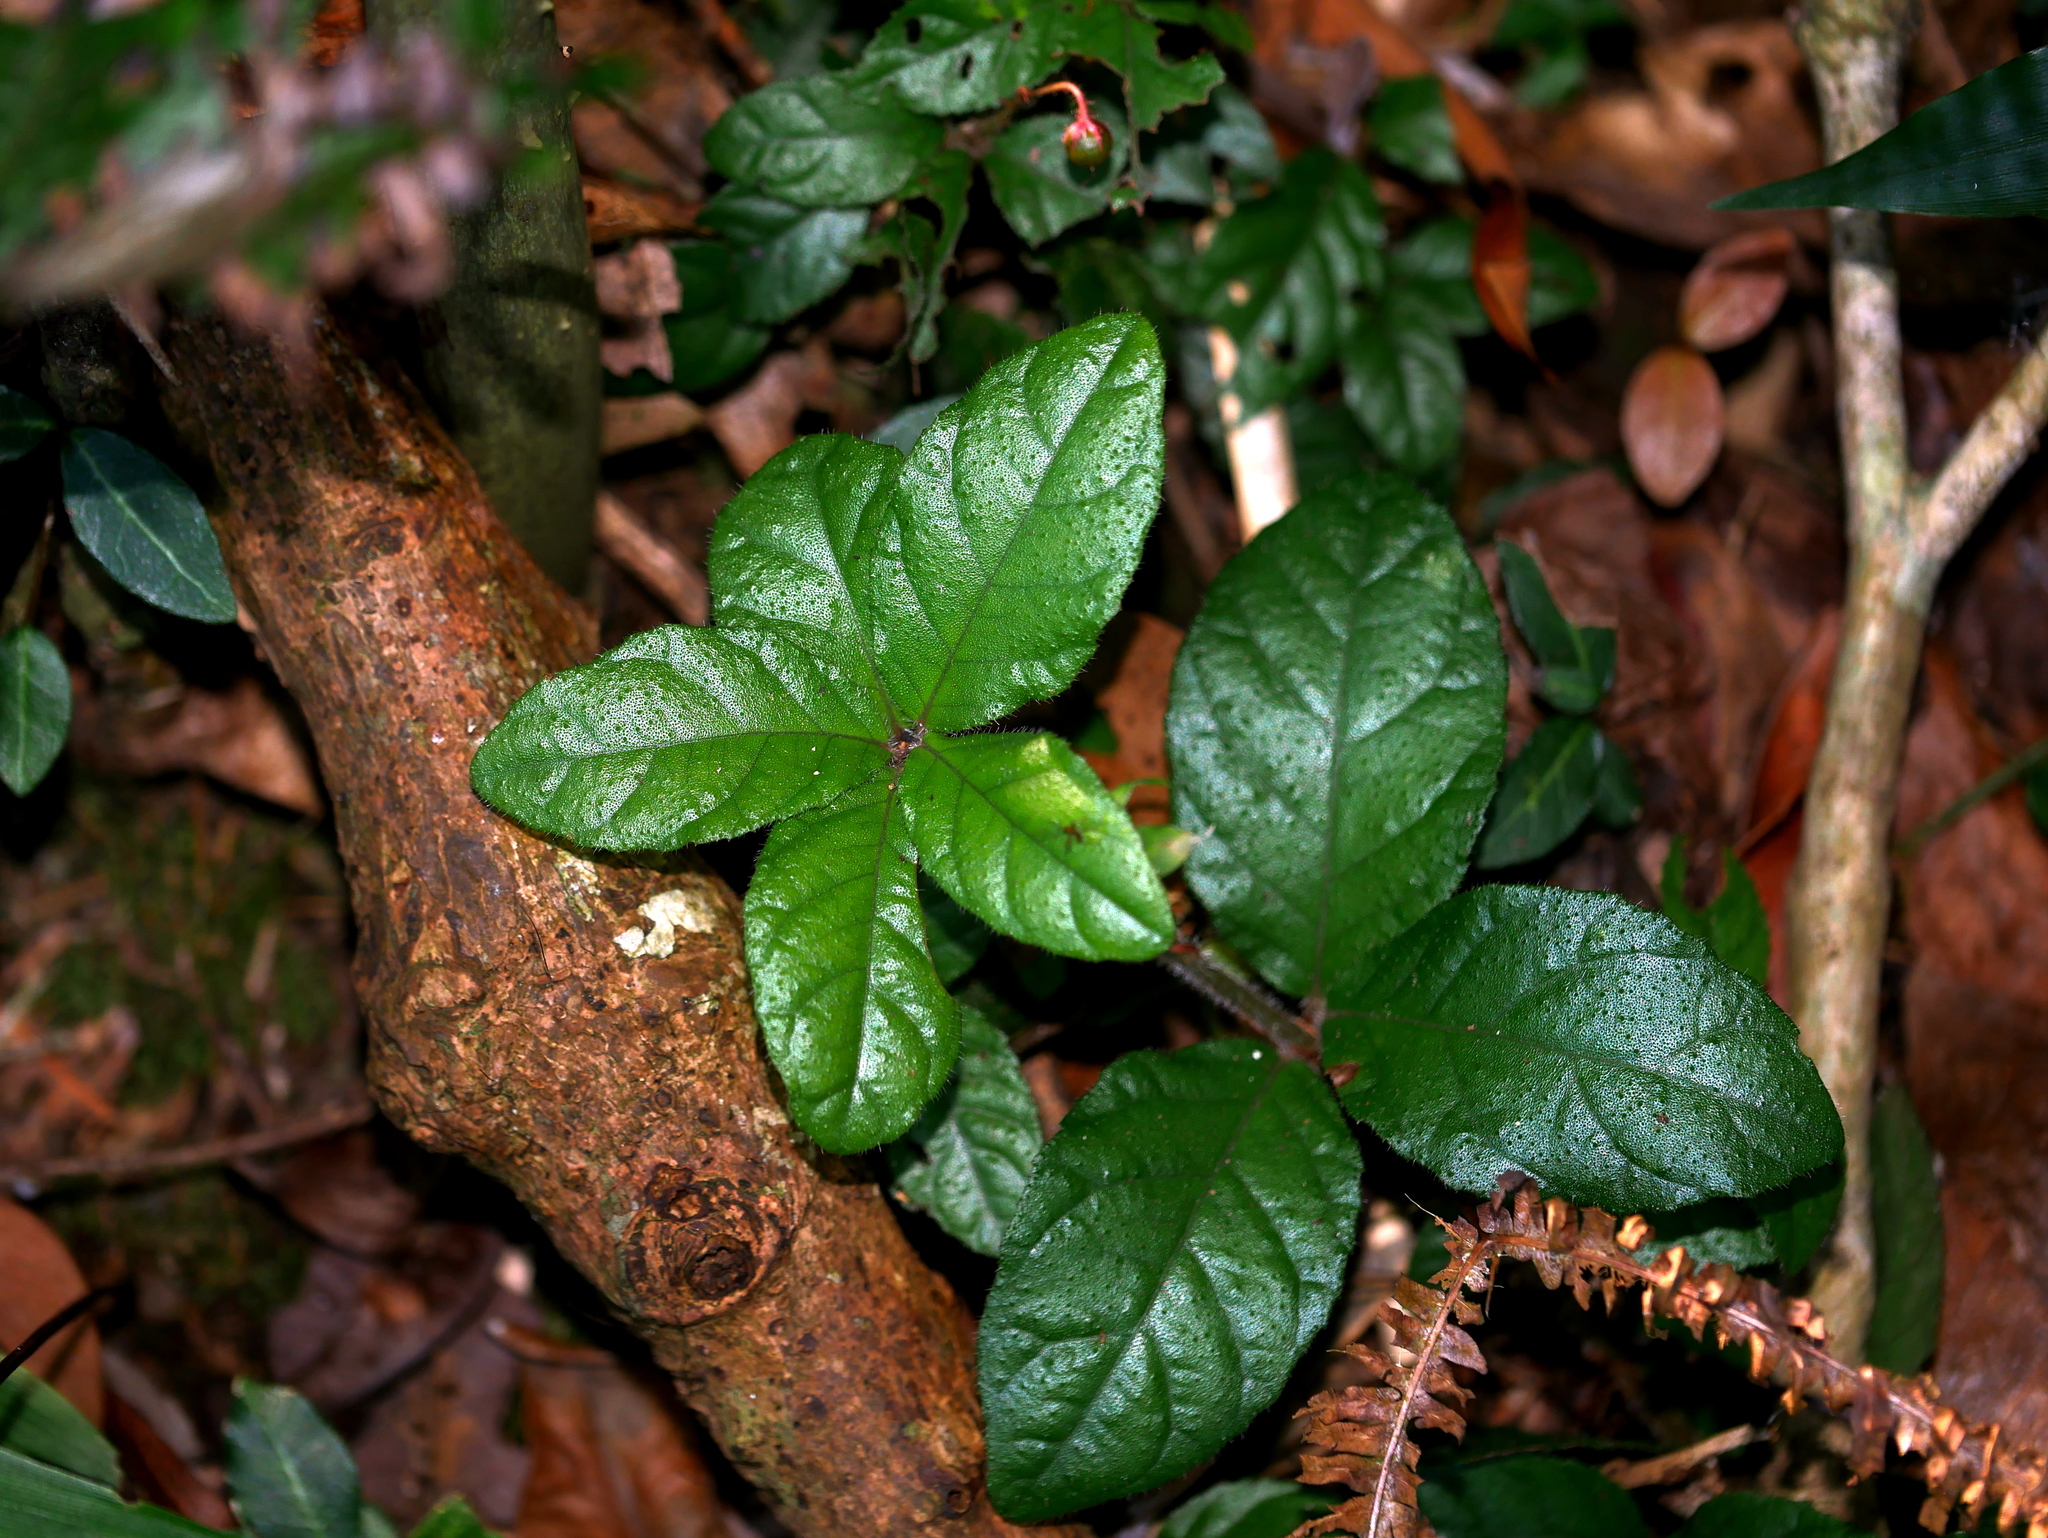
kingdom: Plantae
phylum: Tracheophyta
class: Magnoliopsida
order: Ericales
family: Primulaceae
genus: Ardisia
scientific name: Ardisia pusilla
